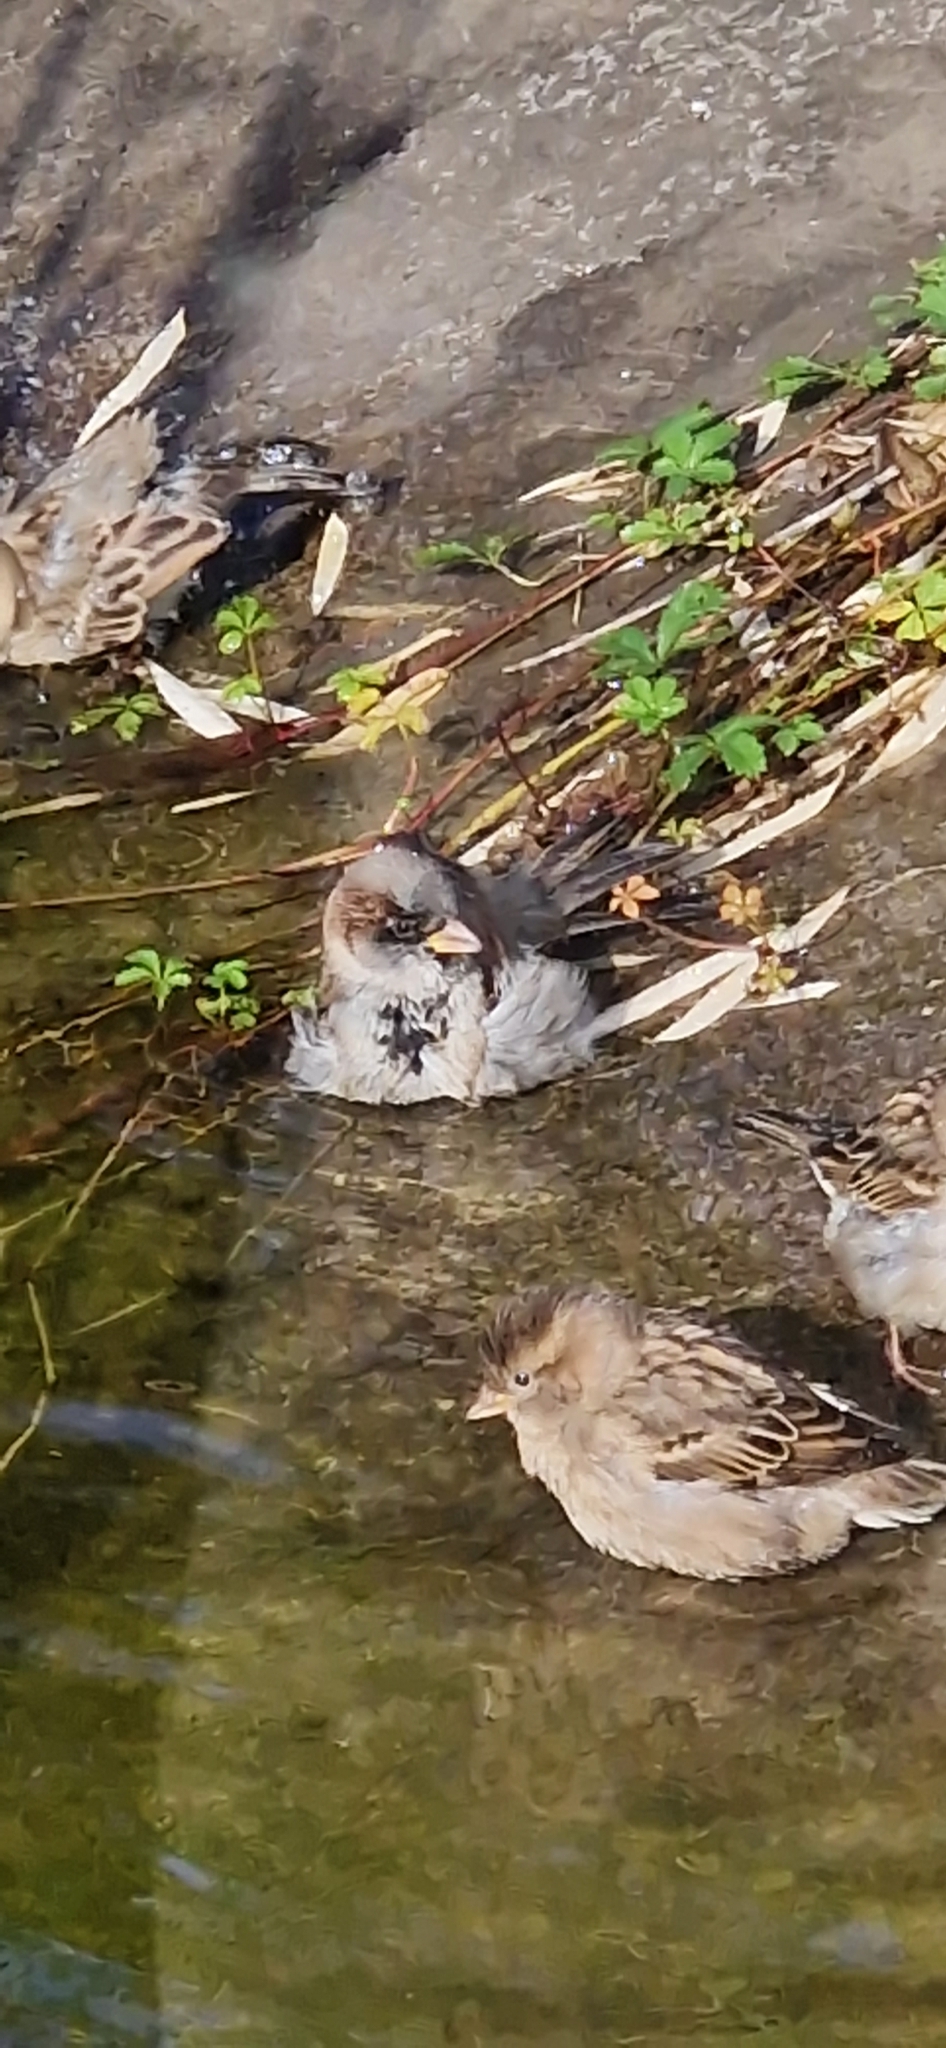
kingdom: Animalia
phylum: Chordata
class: Aves
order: Passeriformes
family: Passeridae
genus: Passer
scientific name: Passer domesticus
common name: House sparrow
